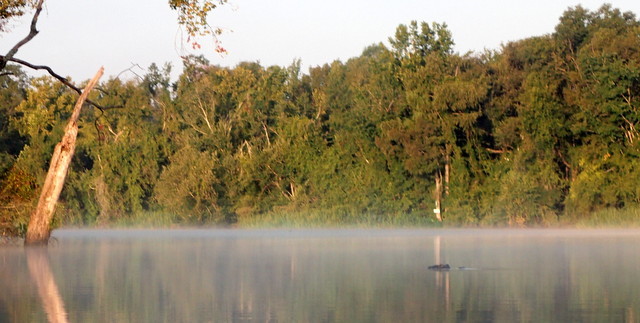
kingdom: Animalia
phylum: Chordata
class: Crocodylia
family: Alligatoridae
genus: Alligator
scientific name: Alligator mississippiensis
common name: American alligator
